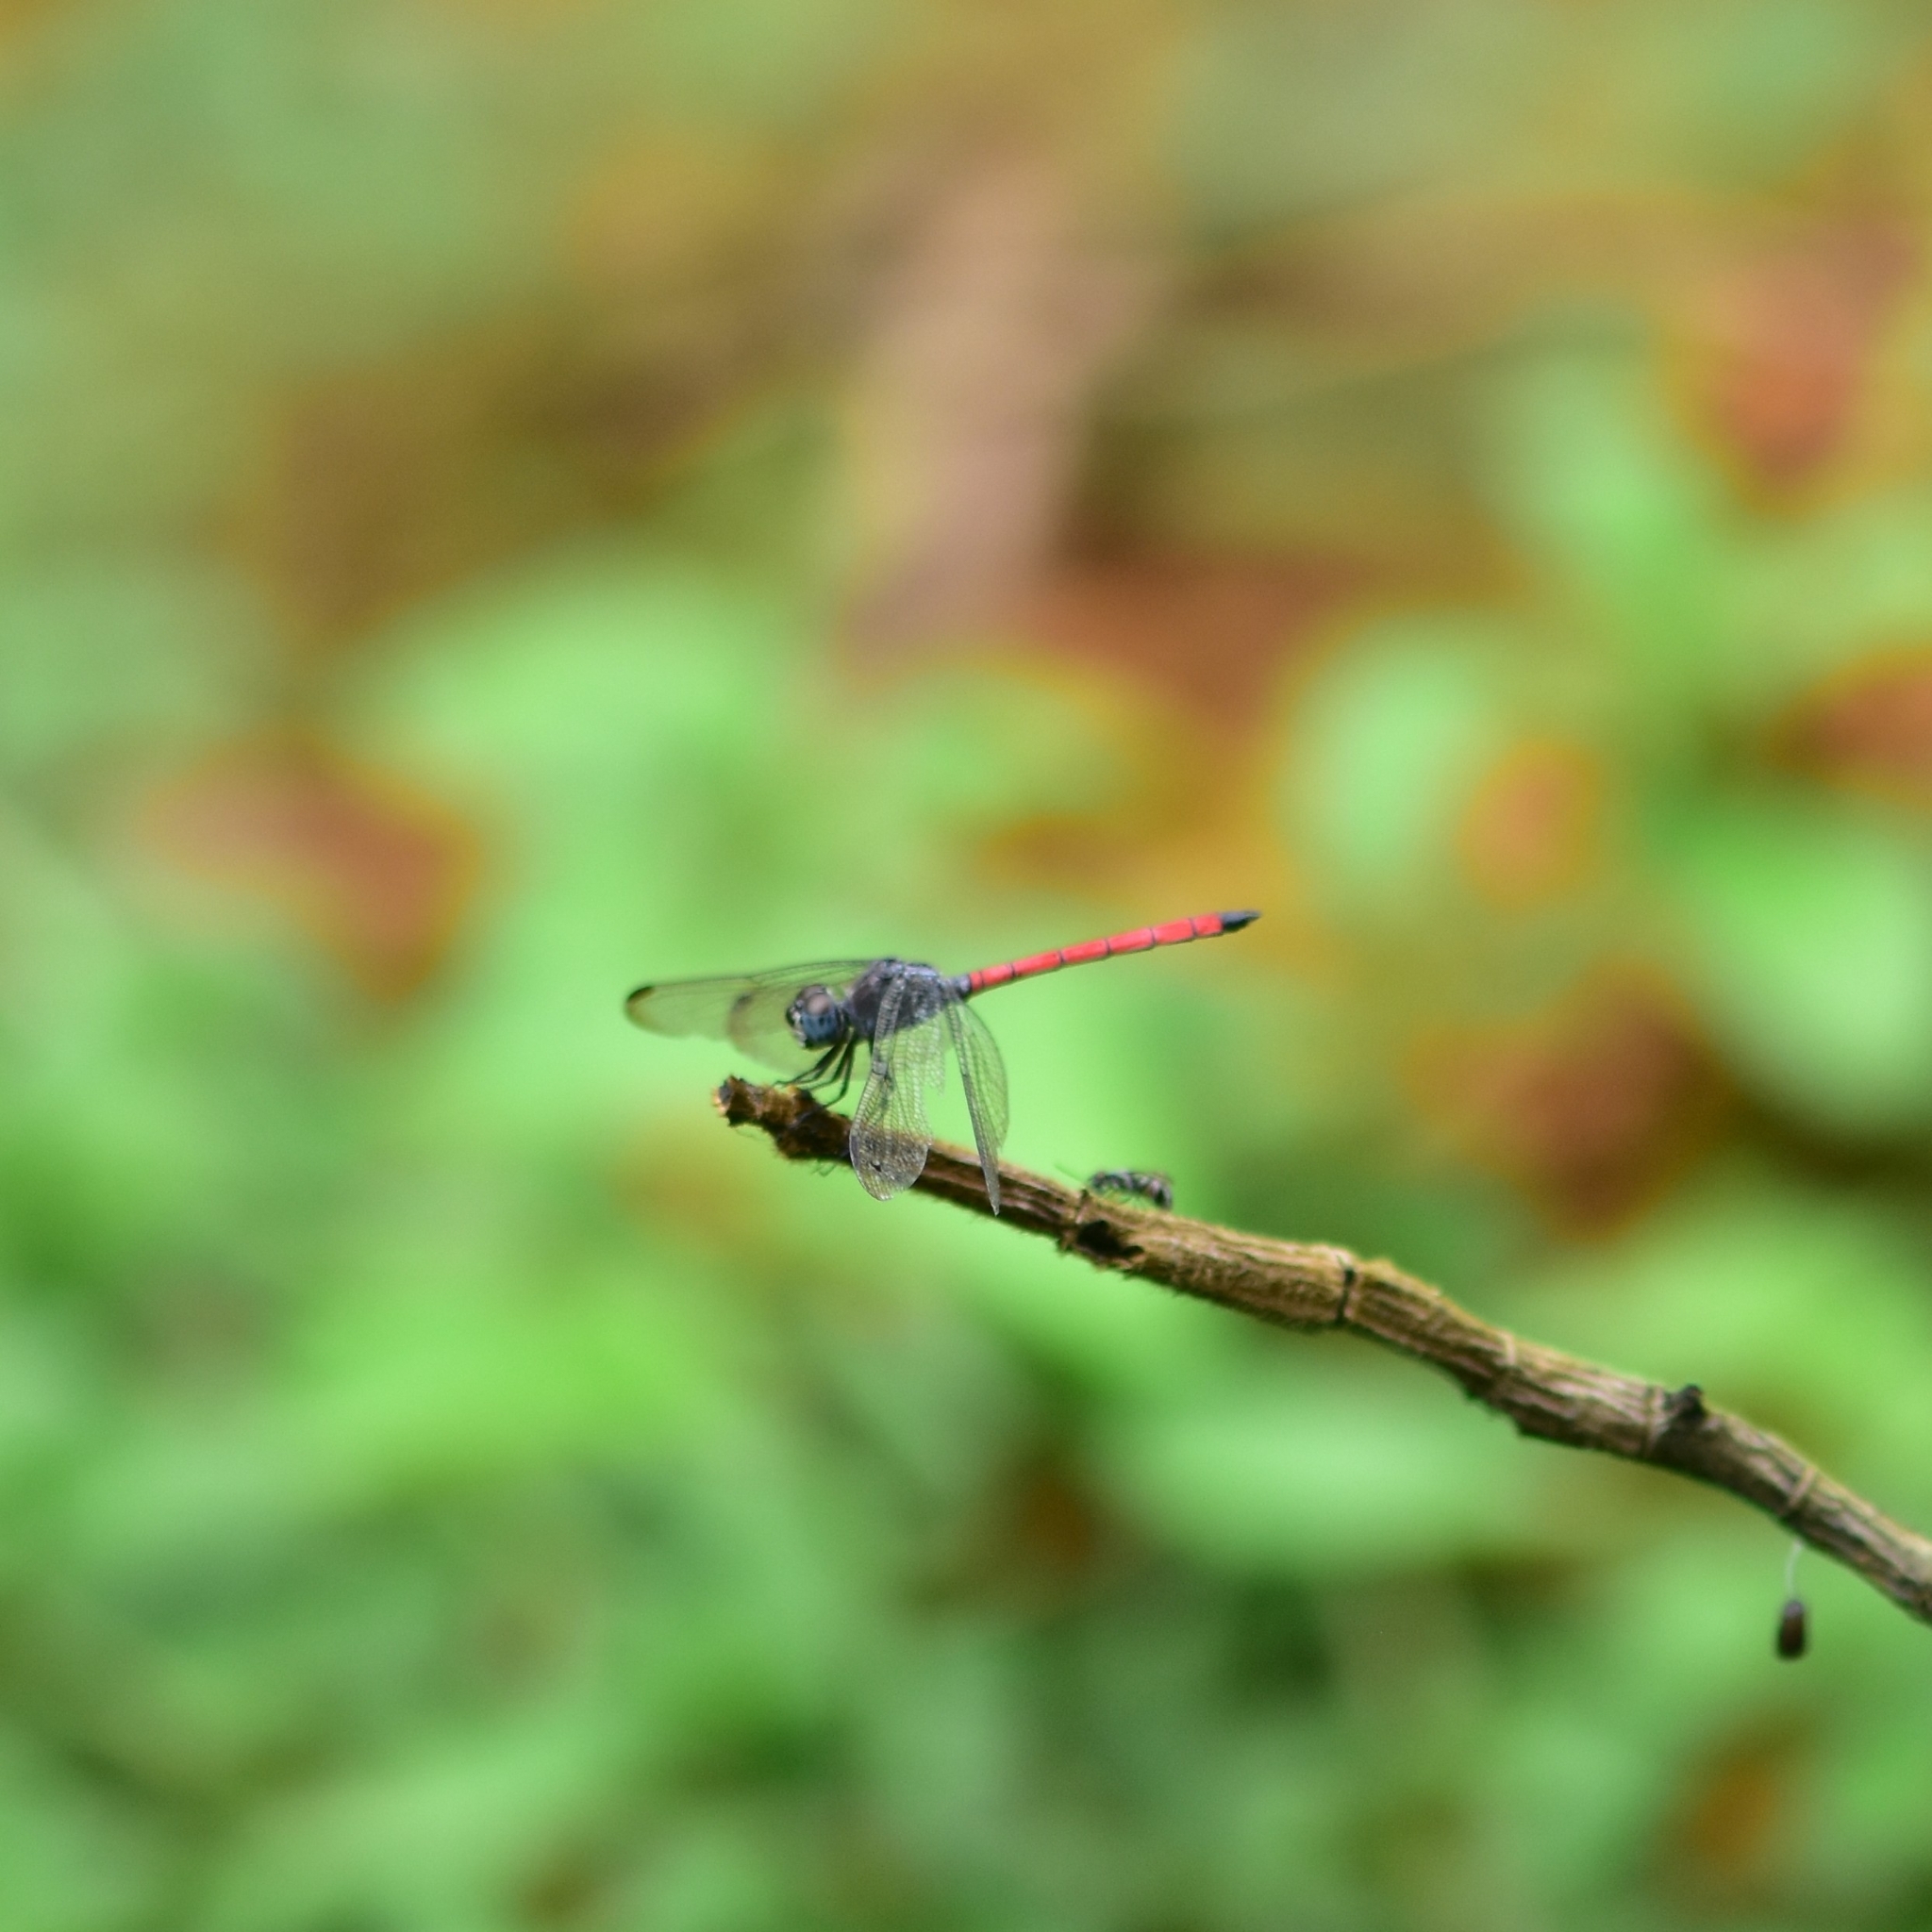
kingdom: Animalia
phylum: Arthropoda
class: Insecta
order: Odonata
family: Libellulidae
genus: Lathrecista
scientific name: Lathrecista asiatica
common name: Scarlet grenadier
